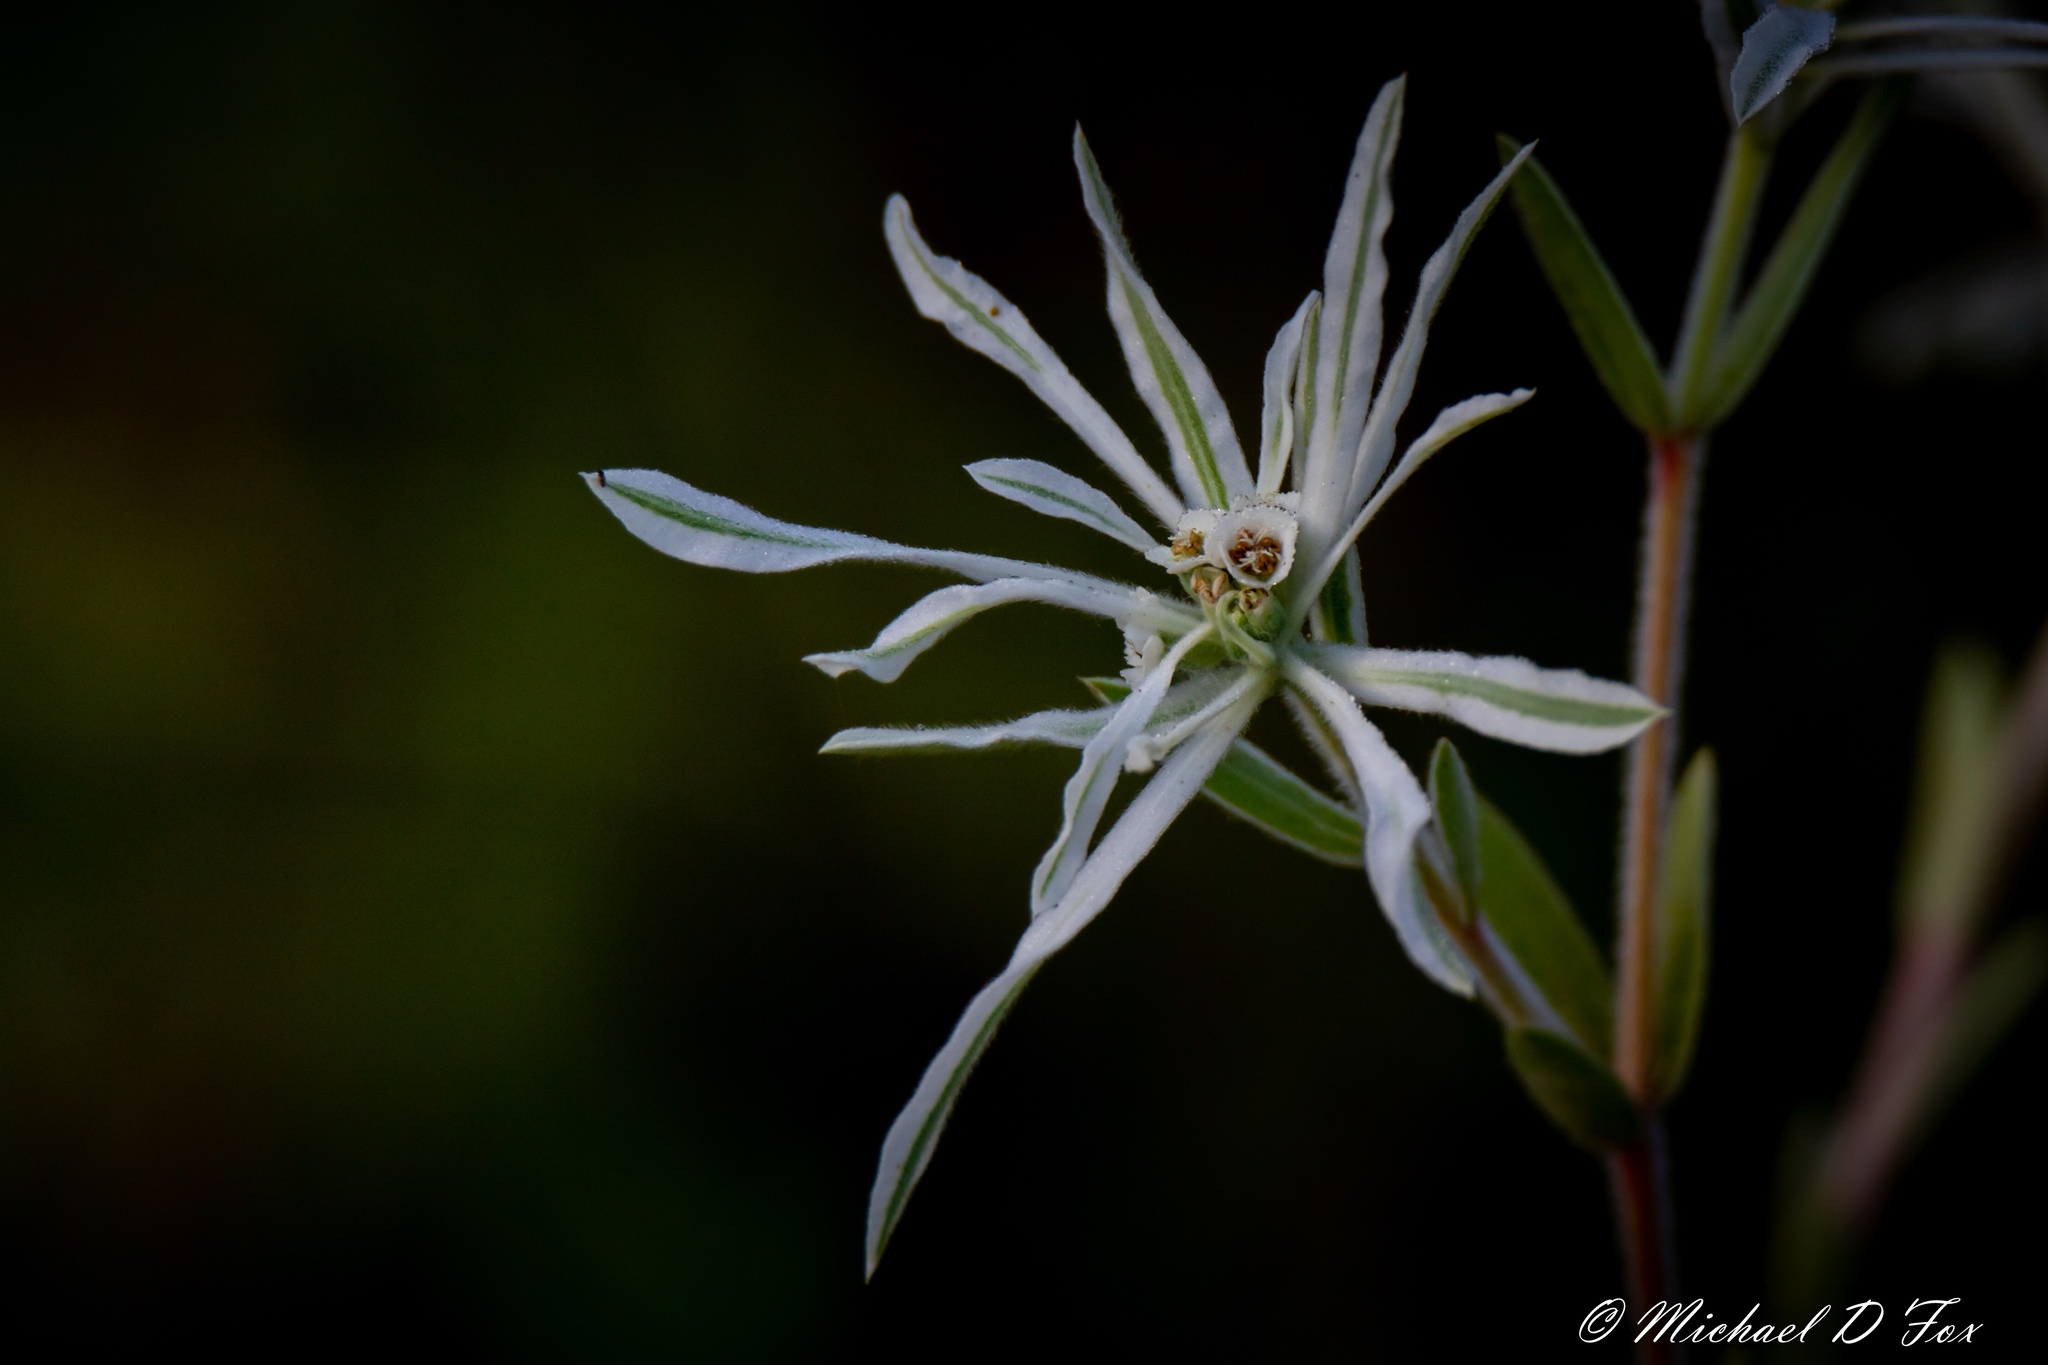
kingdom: Plantae
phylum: Tracheophyta
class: Magnoliopsida
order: Malpighiales
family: Euphorbiaceae
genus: Euphorbia
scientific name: Euphorbia bicolor
